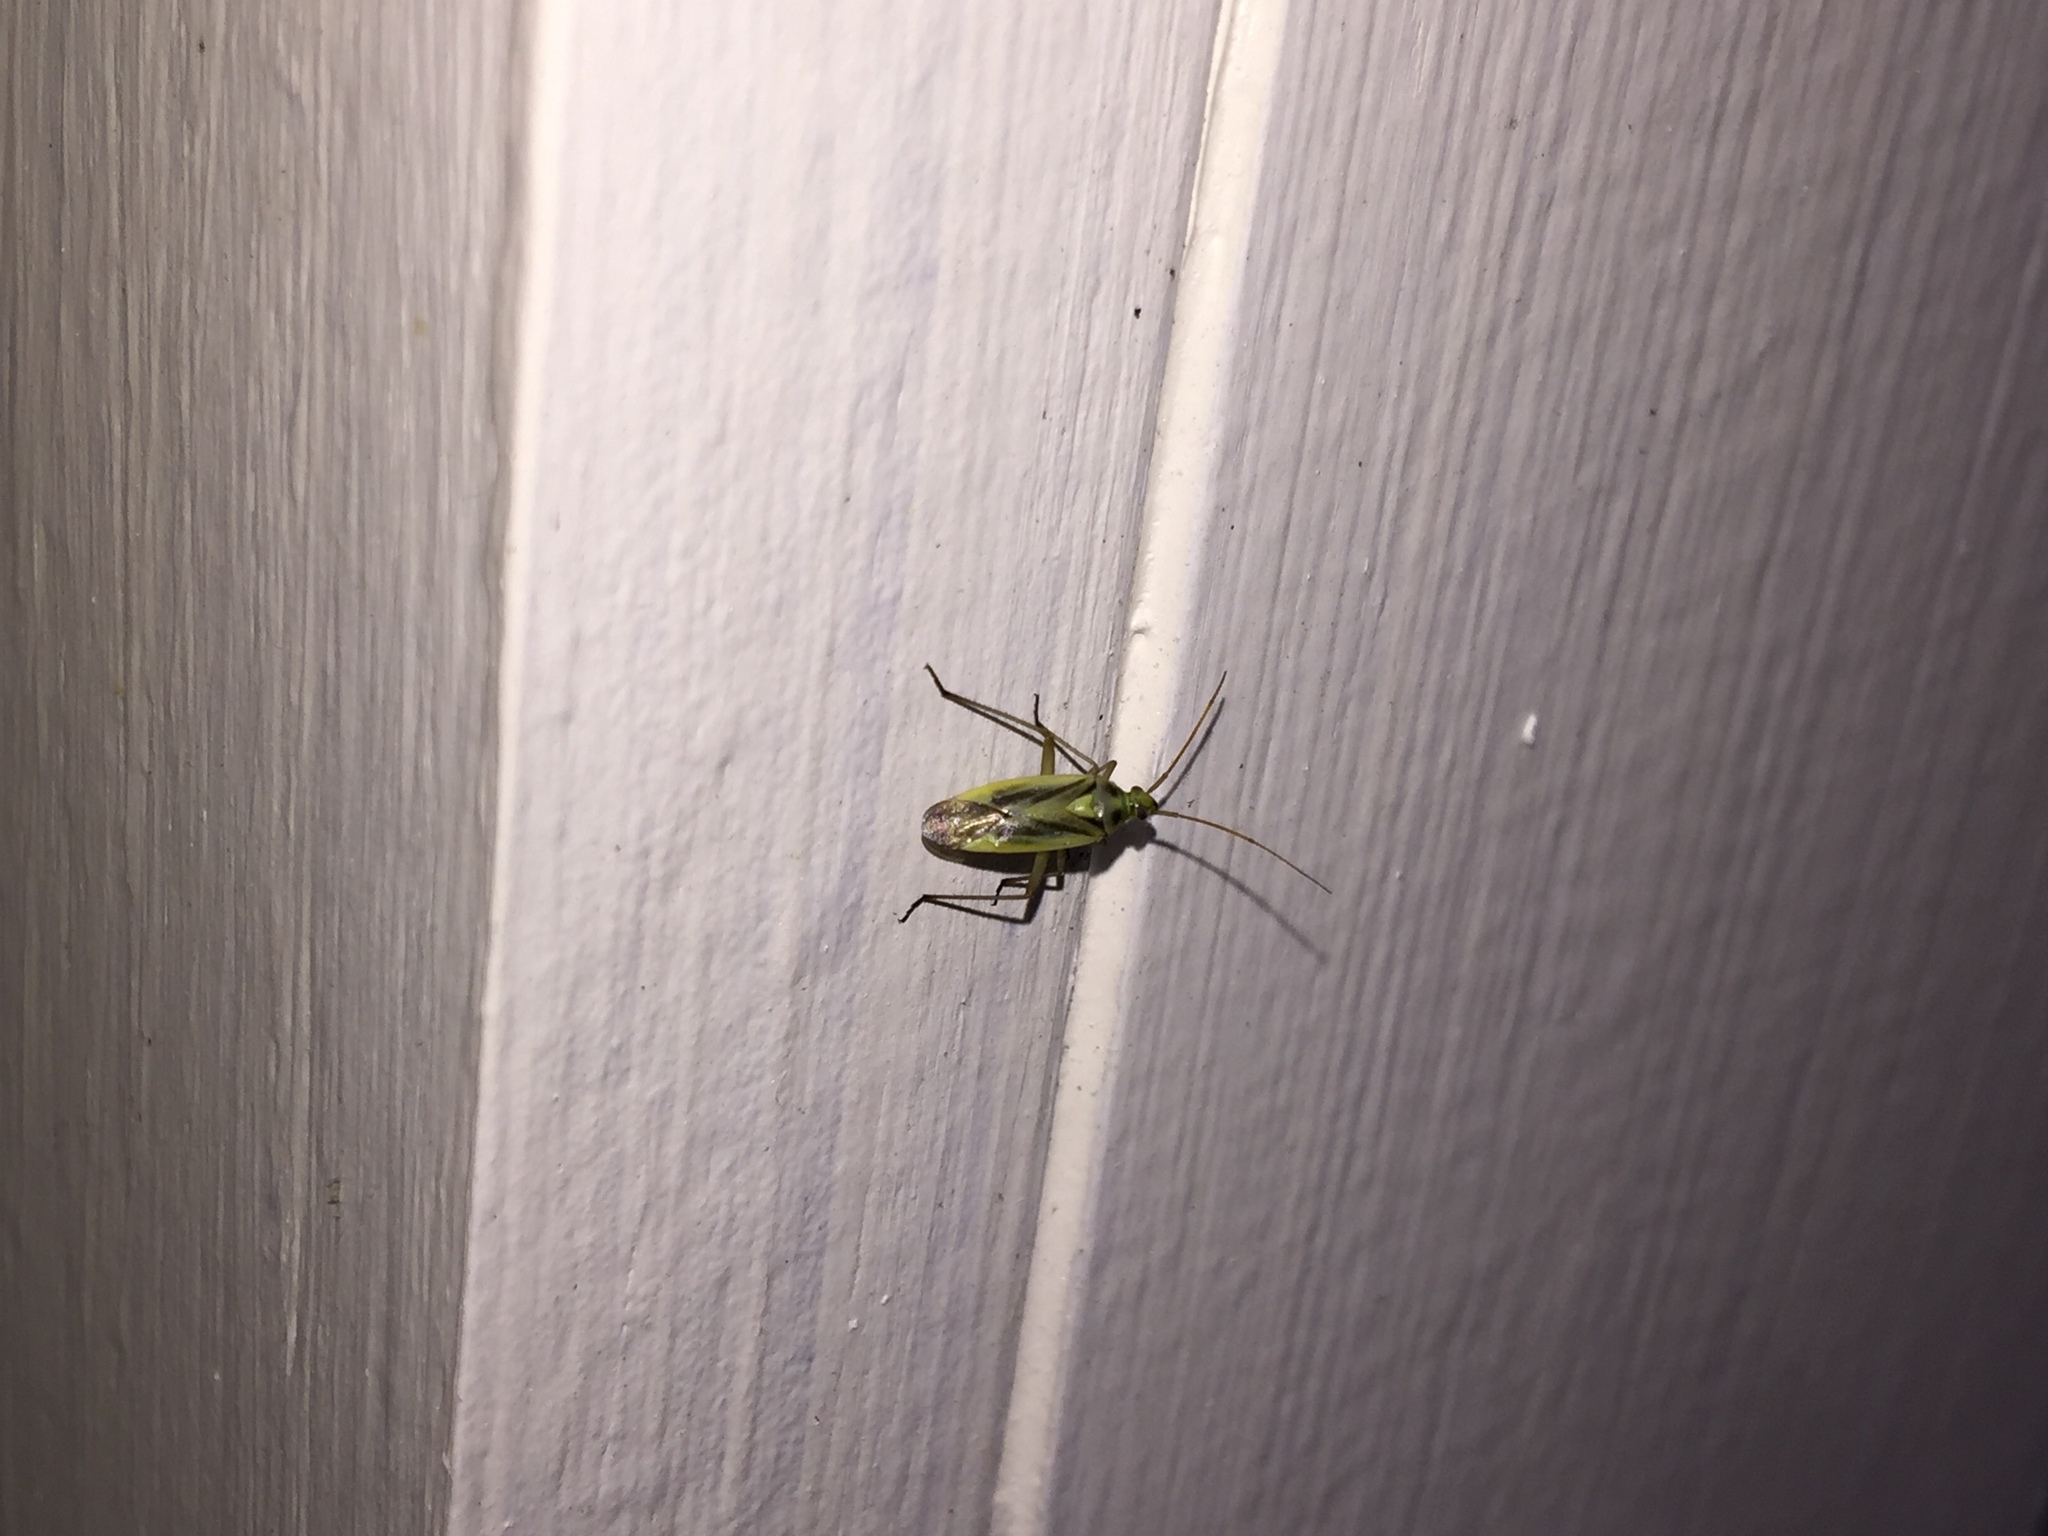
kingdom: Animalia
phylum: Arthropoda
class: Insecta
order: Hemiptera
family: Miridae
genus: Stenotus
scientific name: Stenotus binotatus
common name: Plant bug
